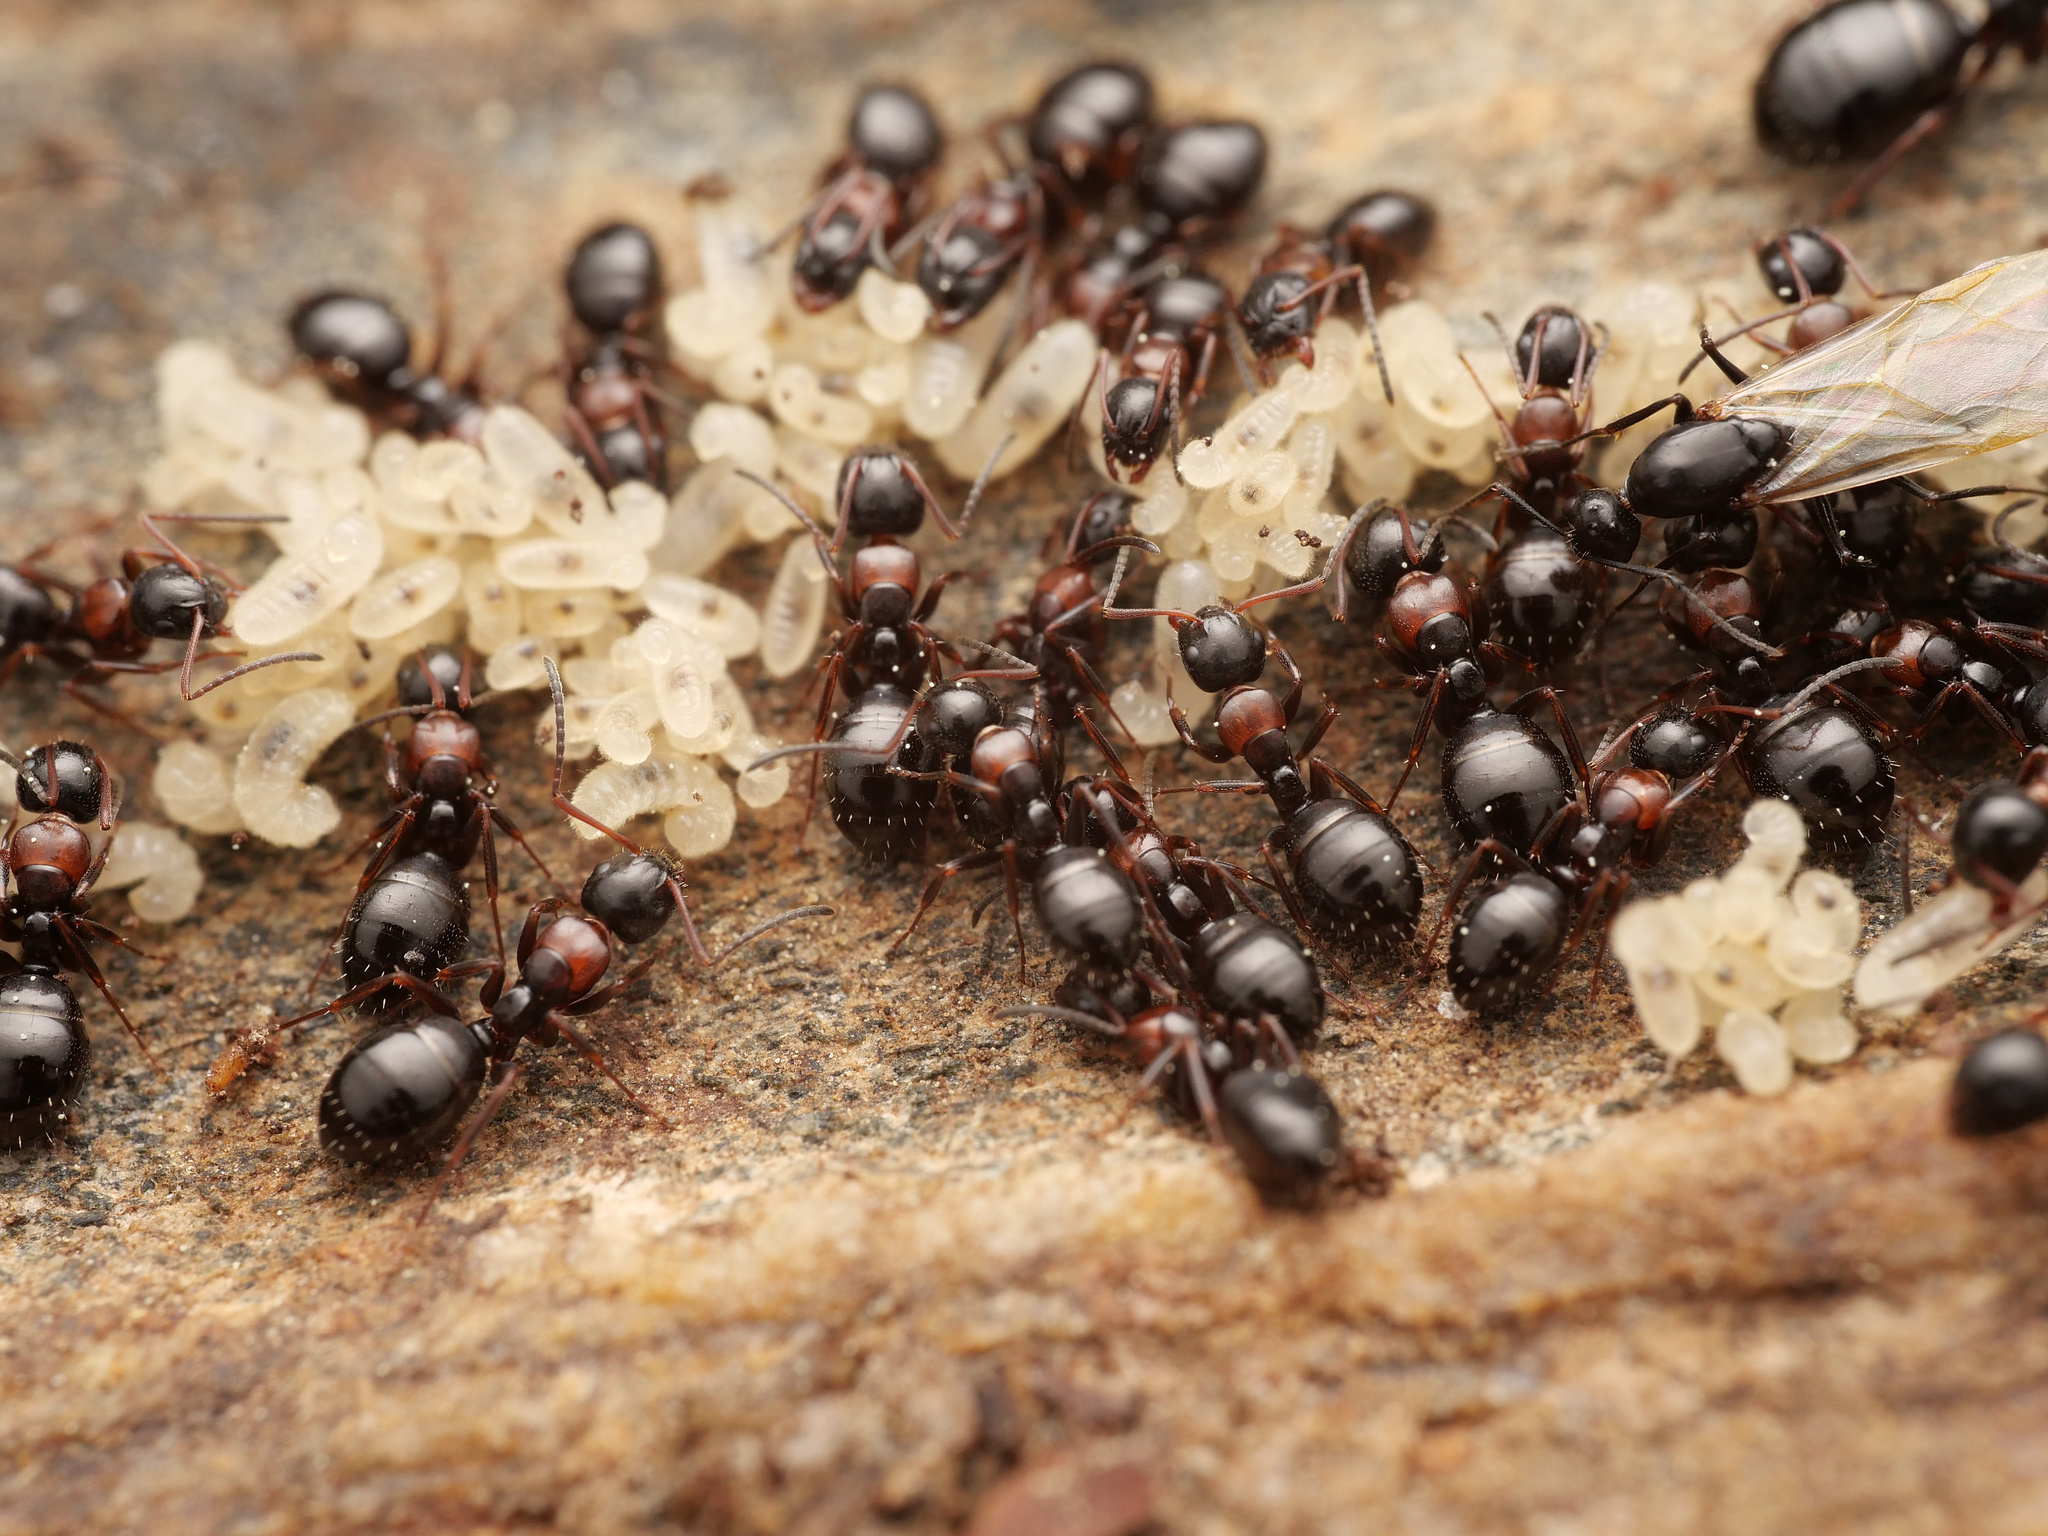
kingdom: Animalia
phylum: Arthropoda
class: Insecta
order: Hymenoptera
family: Formicidae
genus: Camponotus
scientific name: Camponotus dalmaticus
